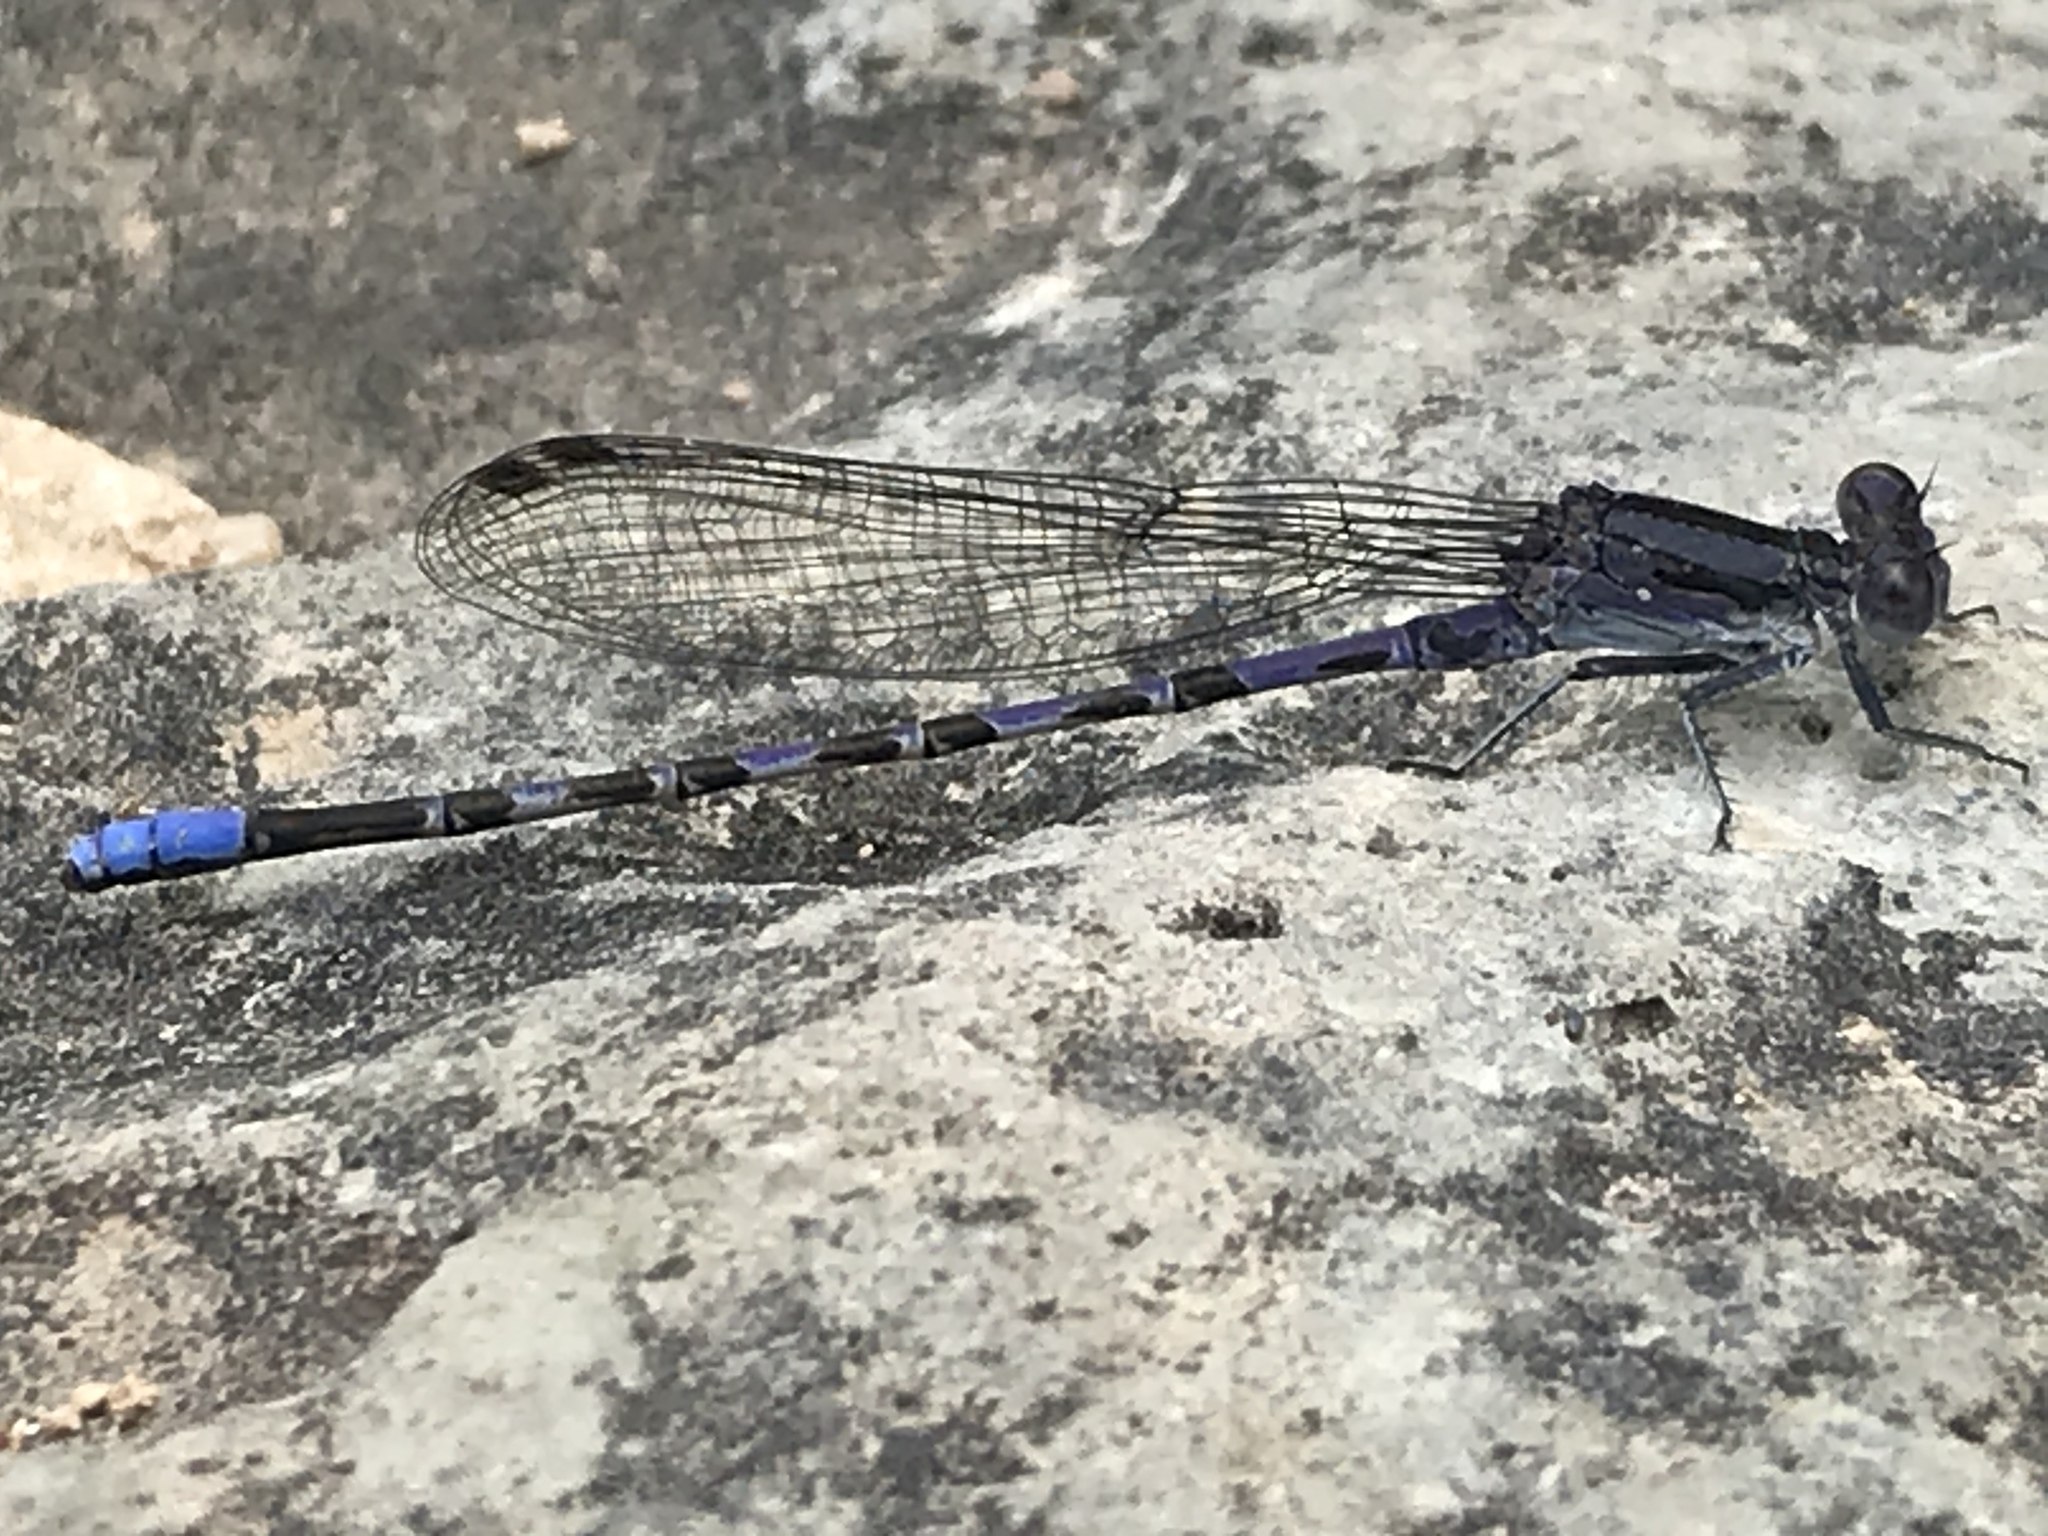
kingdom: Animalia
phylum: Arthropoda
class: Insecta
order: Odonata
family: Coenagrionidae
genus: Argia
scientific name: Argia immunda
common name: Kiowa dancer
